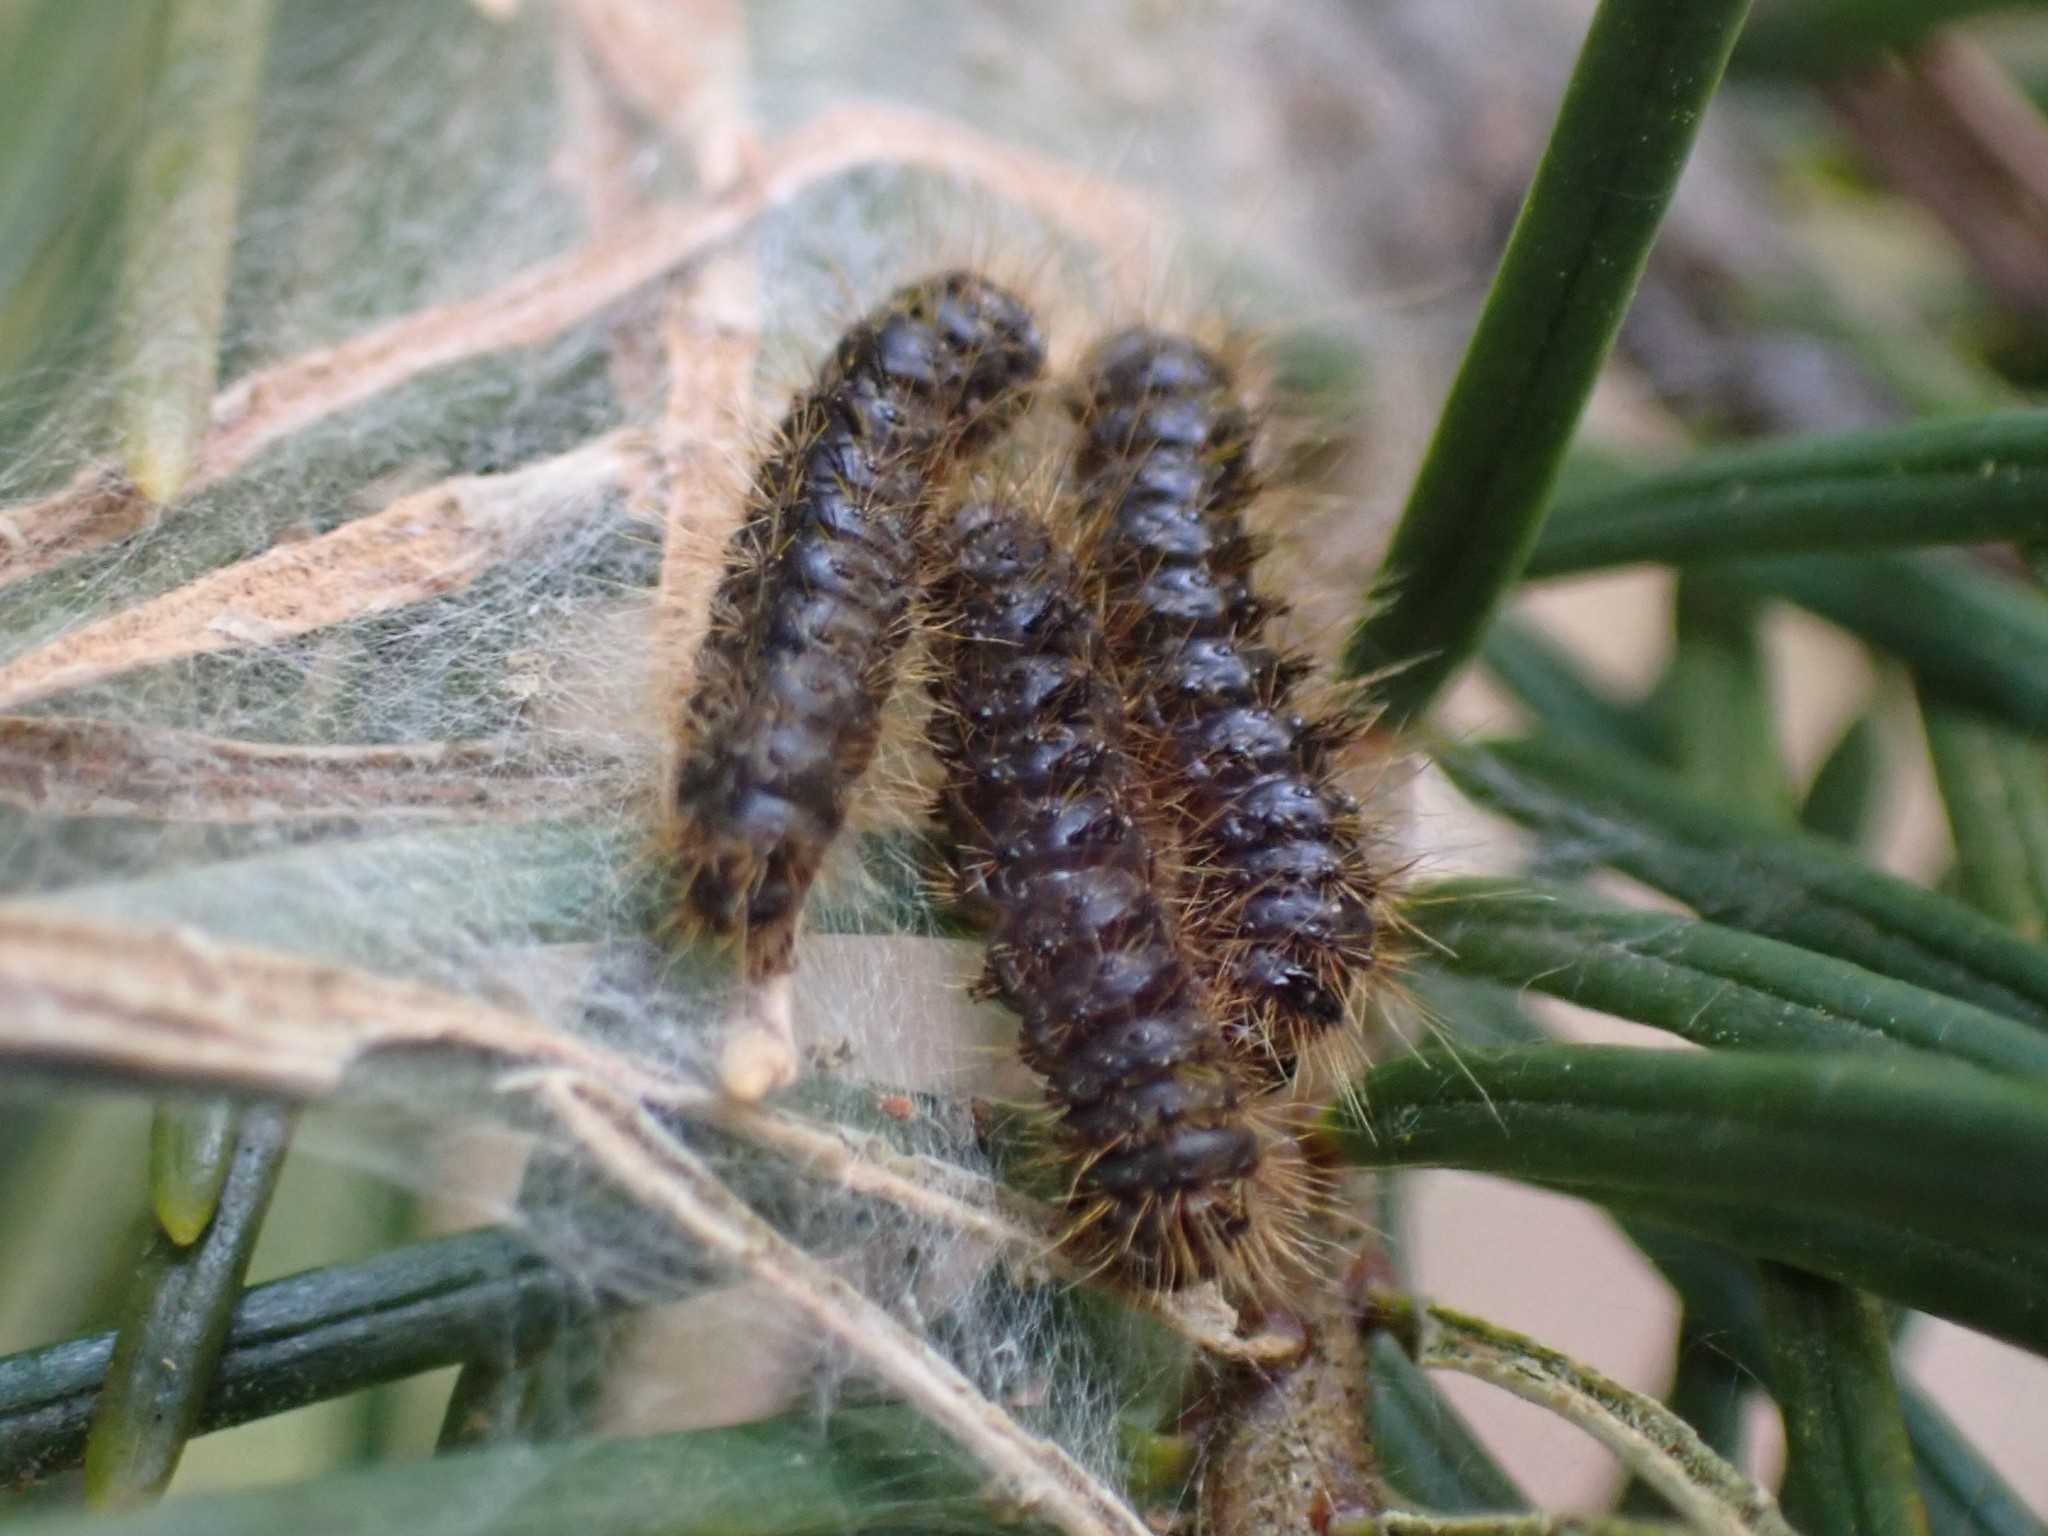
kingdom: Animalia
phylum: Arthropoda
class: Insecta
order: Lepidoptera
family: Erebidae
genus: Lophocampa
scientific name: Lophocampa argentata
